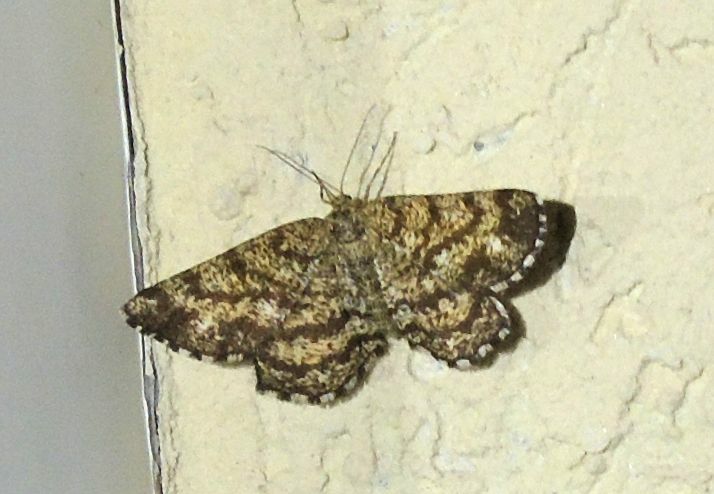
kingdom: Animalia
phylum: Arthropoda
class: Insecta
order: Lepidoptera
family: Geometridae
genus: Ematurga
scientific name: Ematurga atomaria
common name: Common heath
